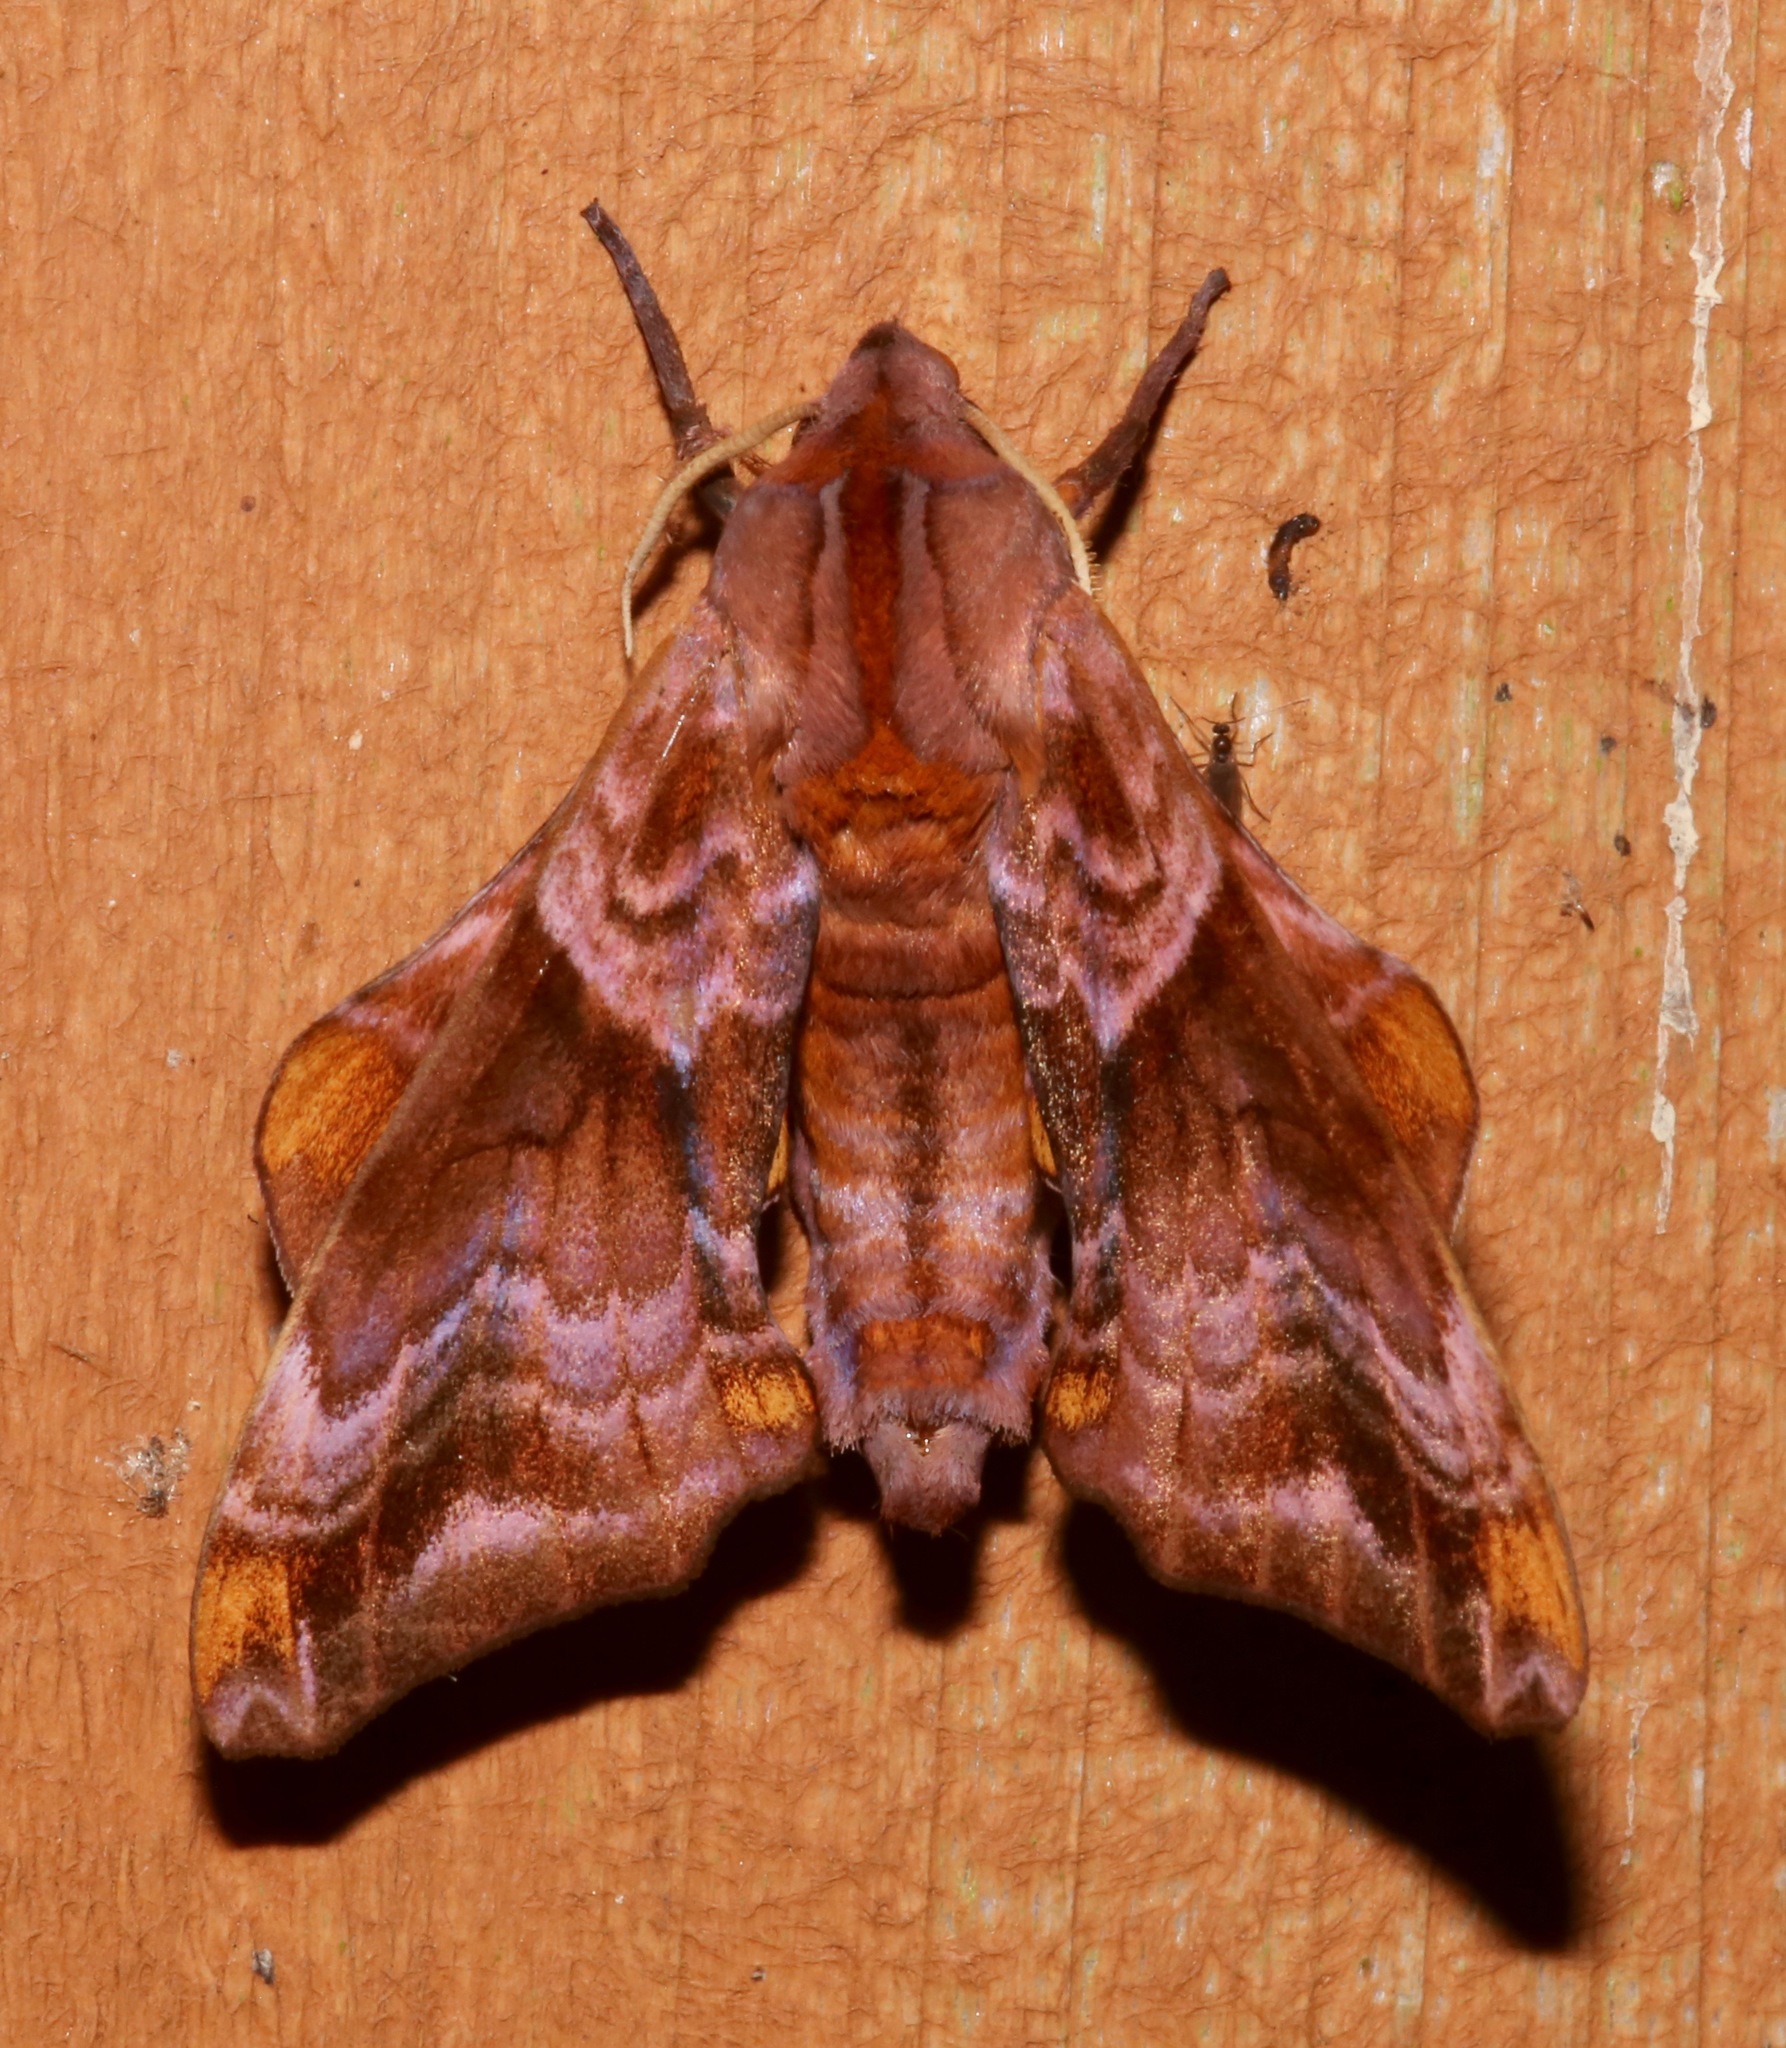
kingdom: Animalia
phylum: Arthropoda
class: Insecta
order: Lepidoptera
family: Sphingidae
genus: Paonias
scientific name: Paonias myops
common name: Small-eyed sphinx
